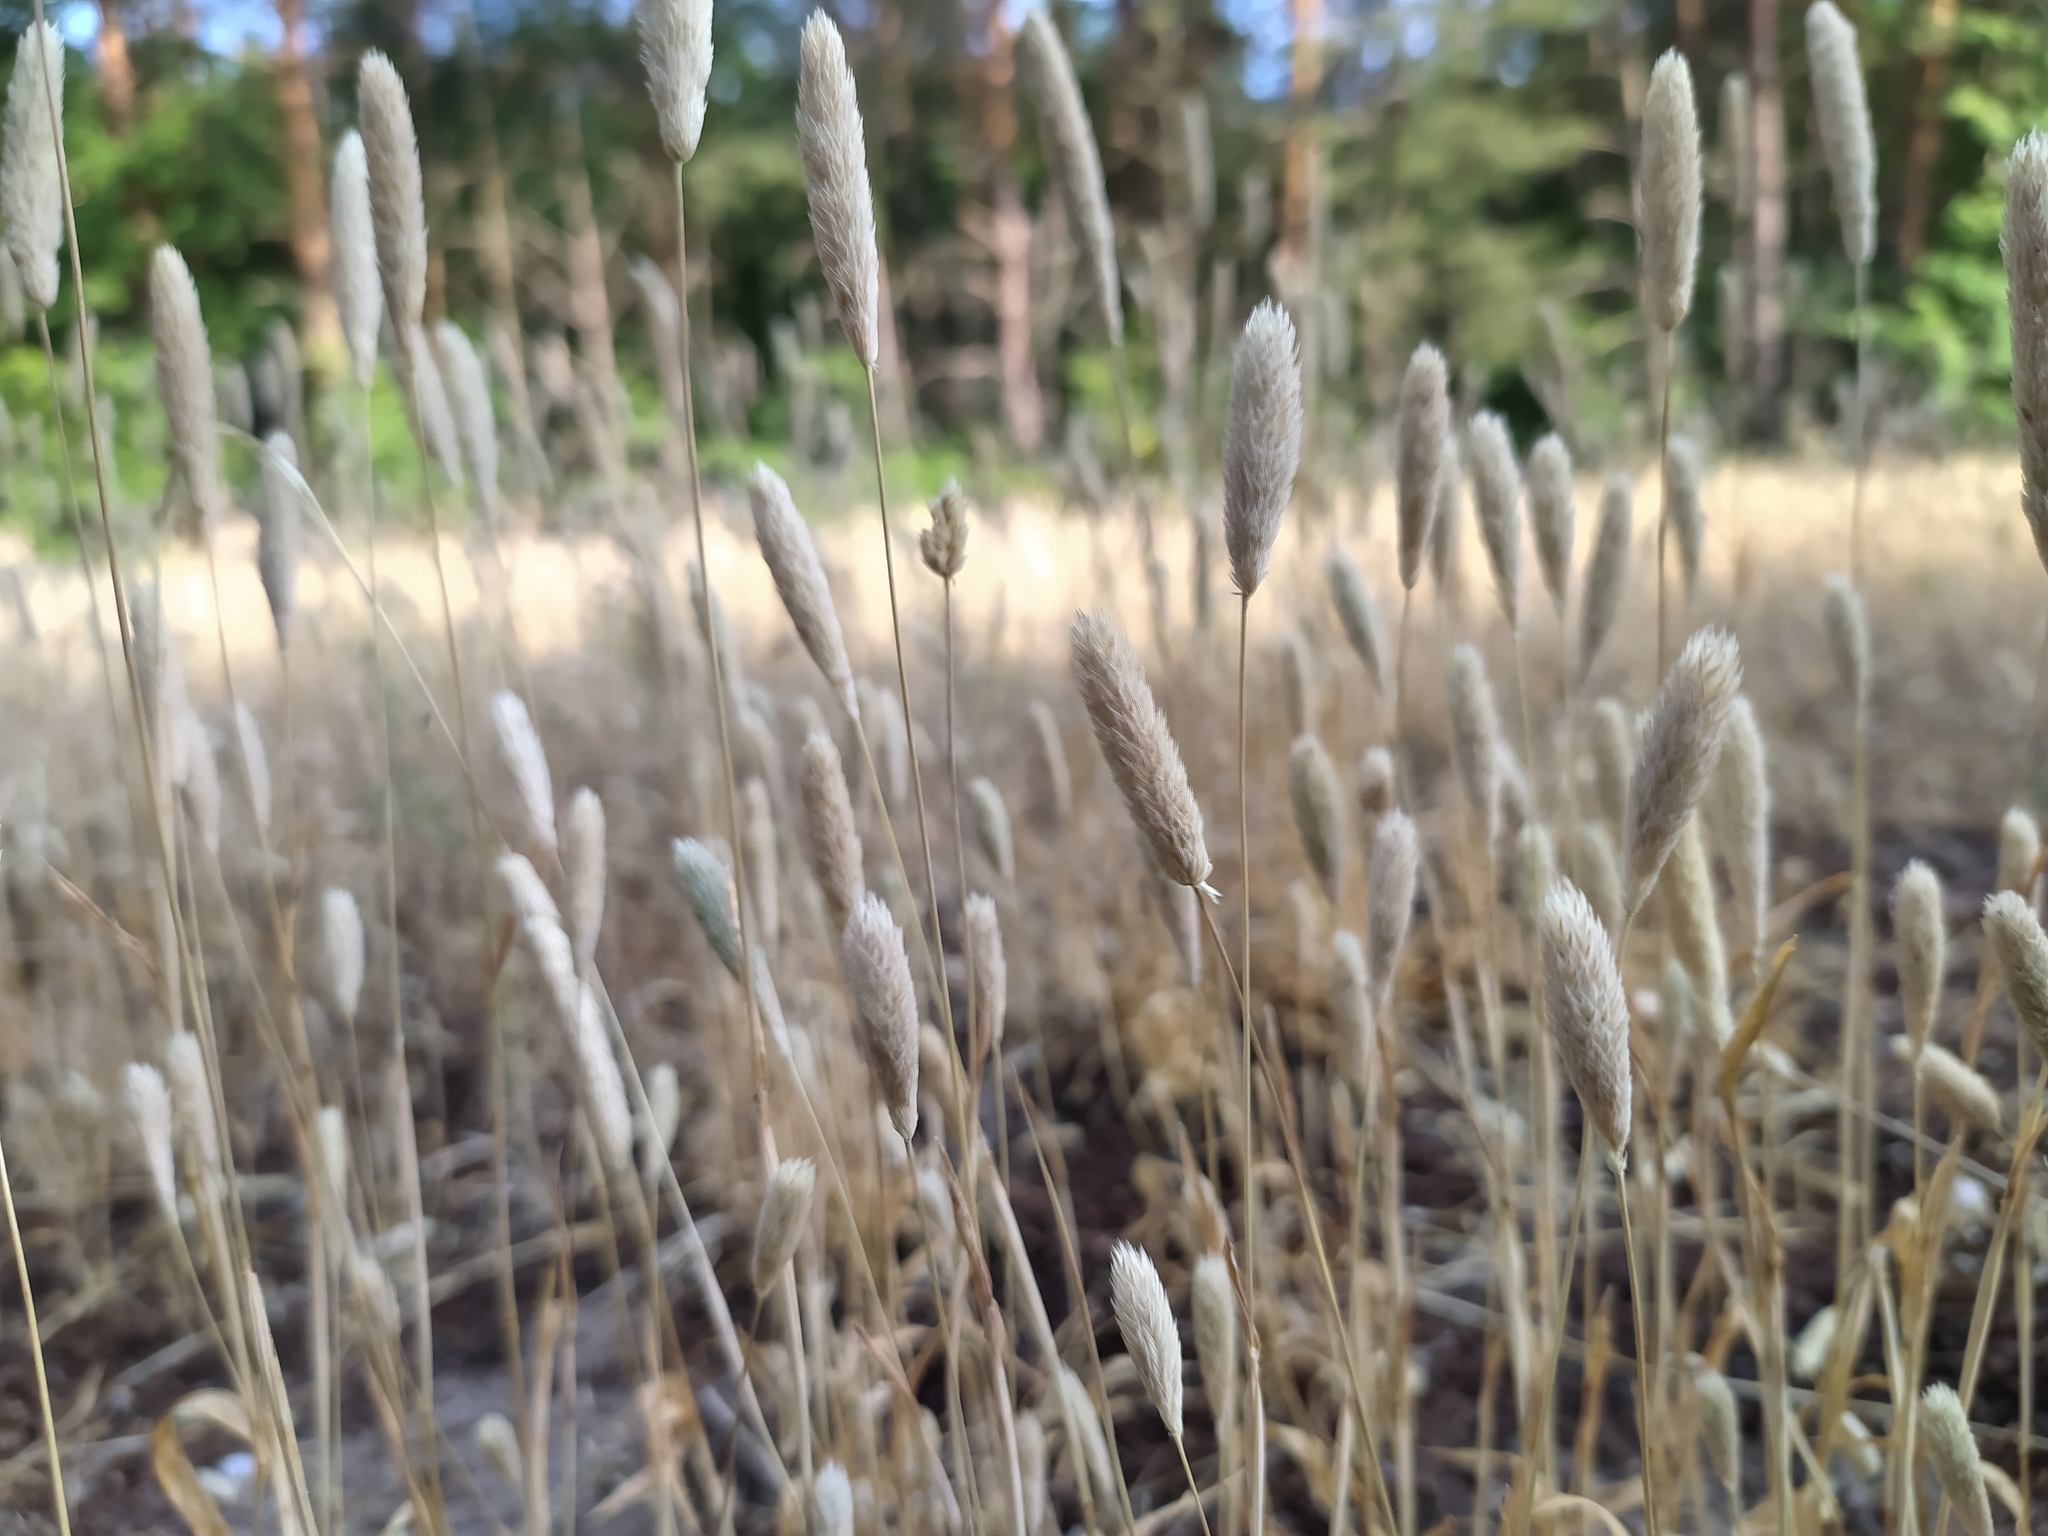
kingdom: Plantae
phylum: Tracheophyta
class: Liliopsida
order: Poales
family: Poaceae
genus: Phleum
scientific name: Phleum arenarium
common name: Sand cat's-tail
